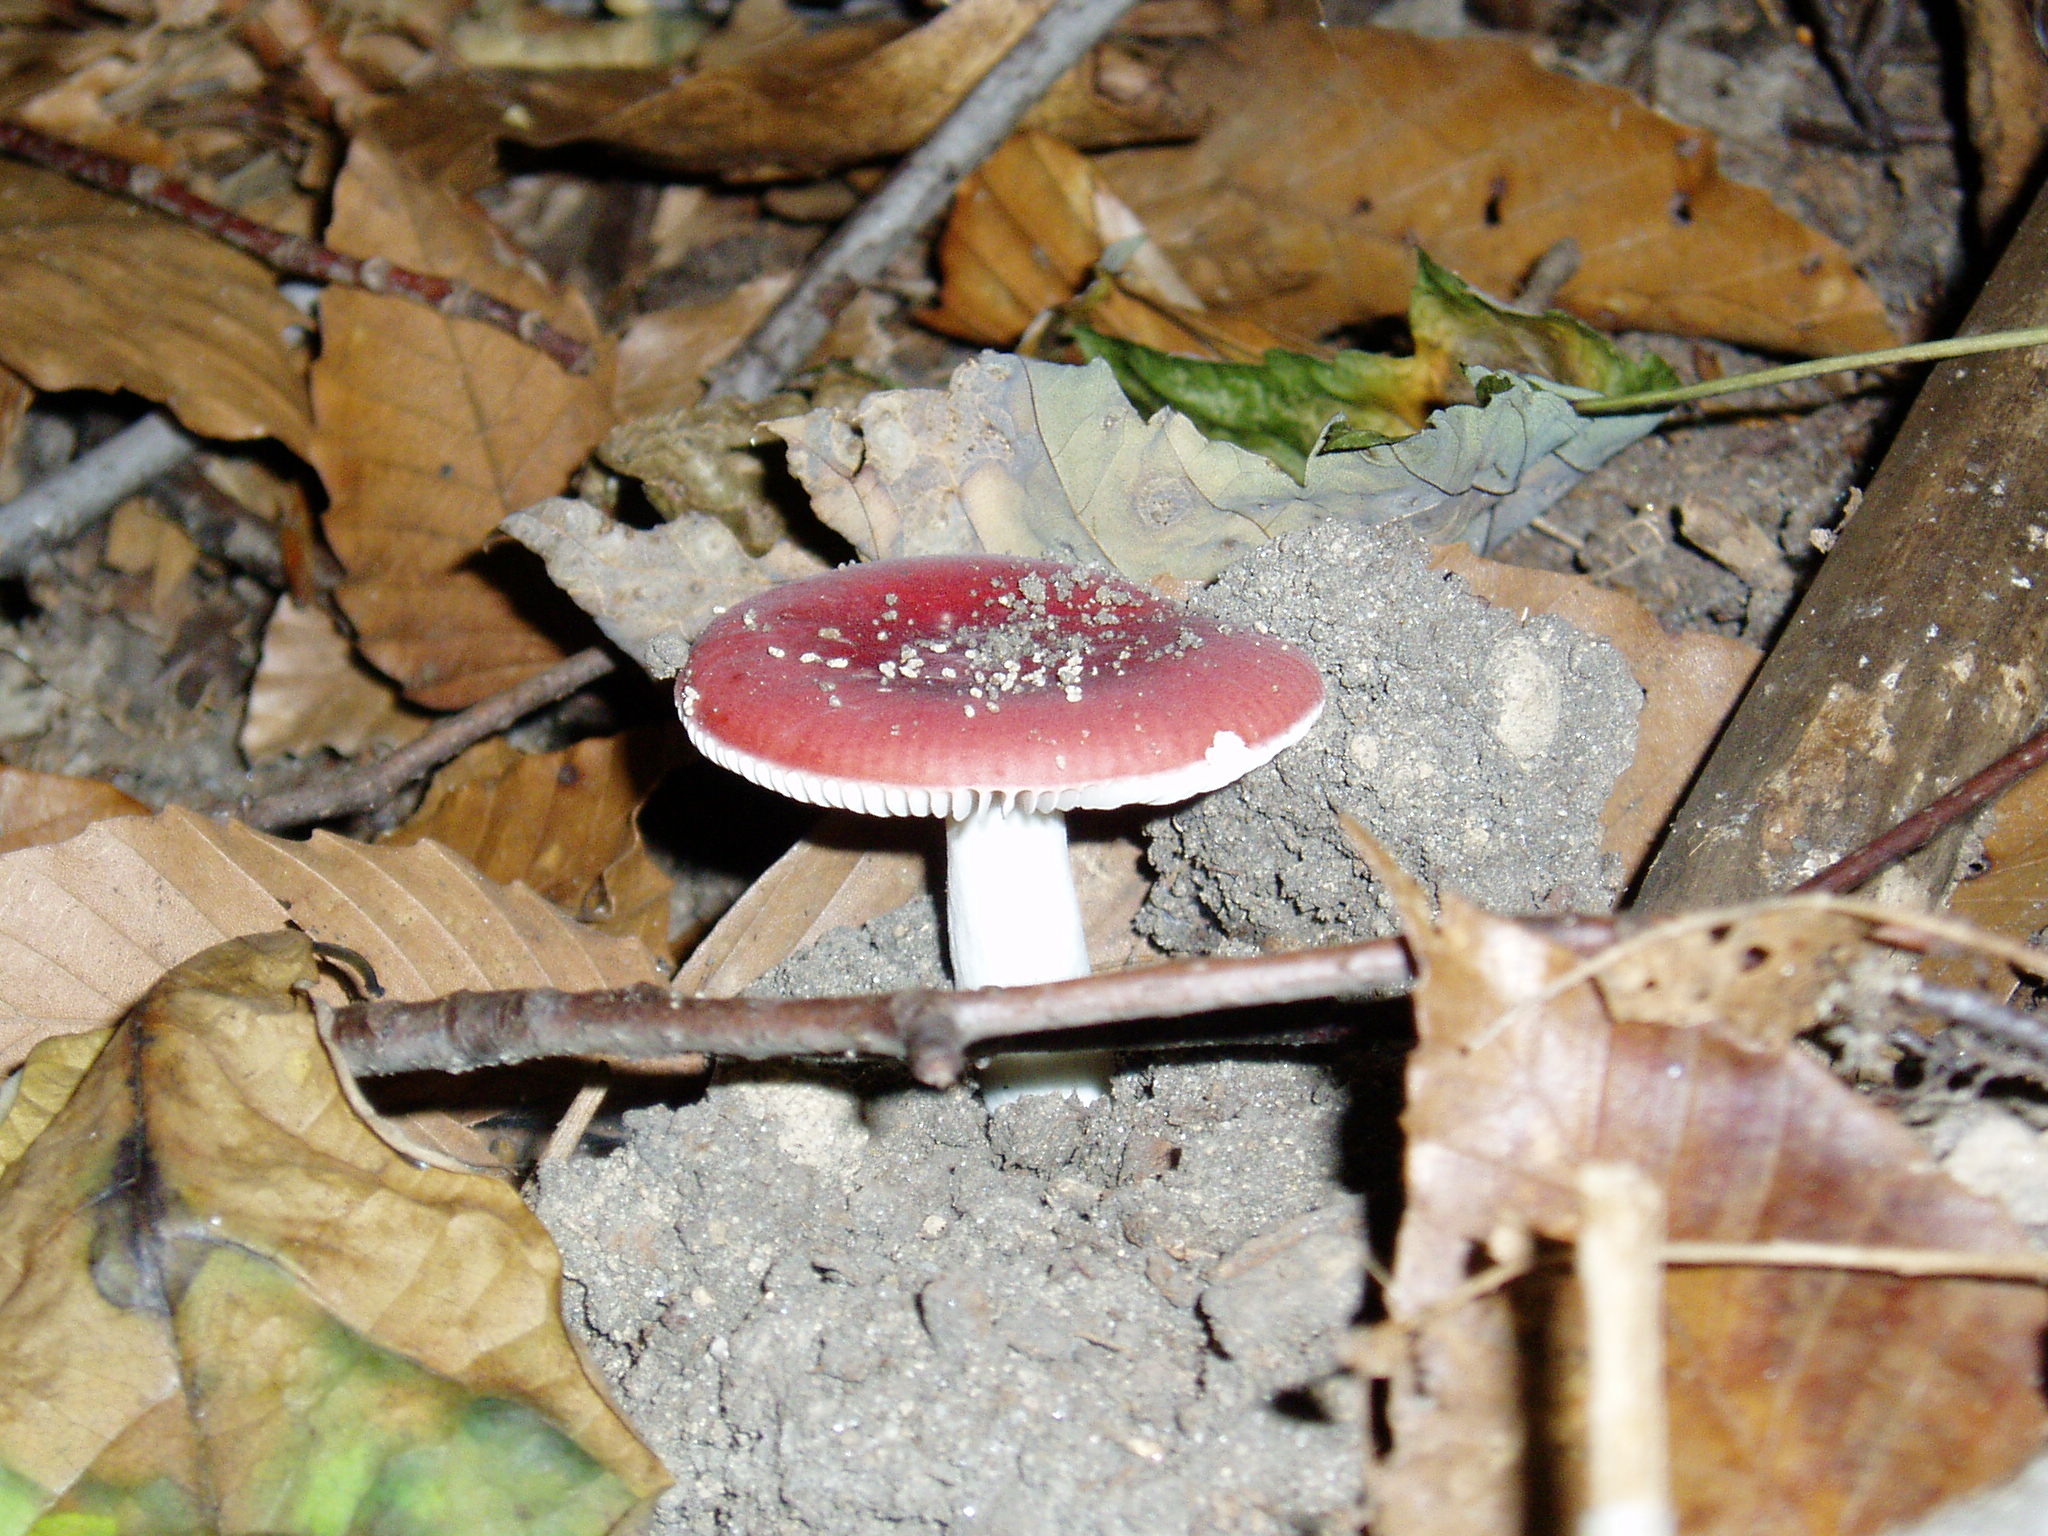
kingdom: Fungi
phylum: Basidiomycota
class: Agaricomycetes
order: Russulales
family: Russulaceae
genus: Russula
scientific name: Russula
